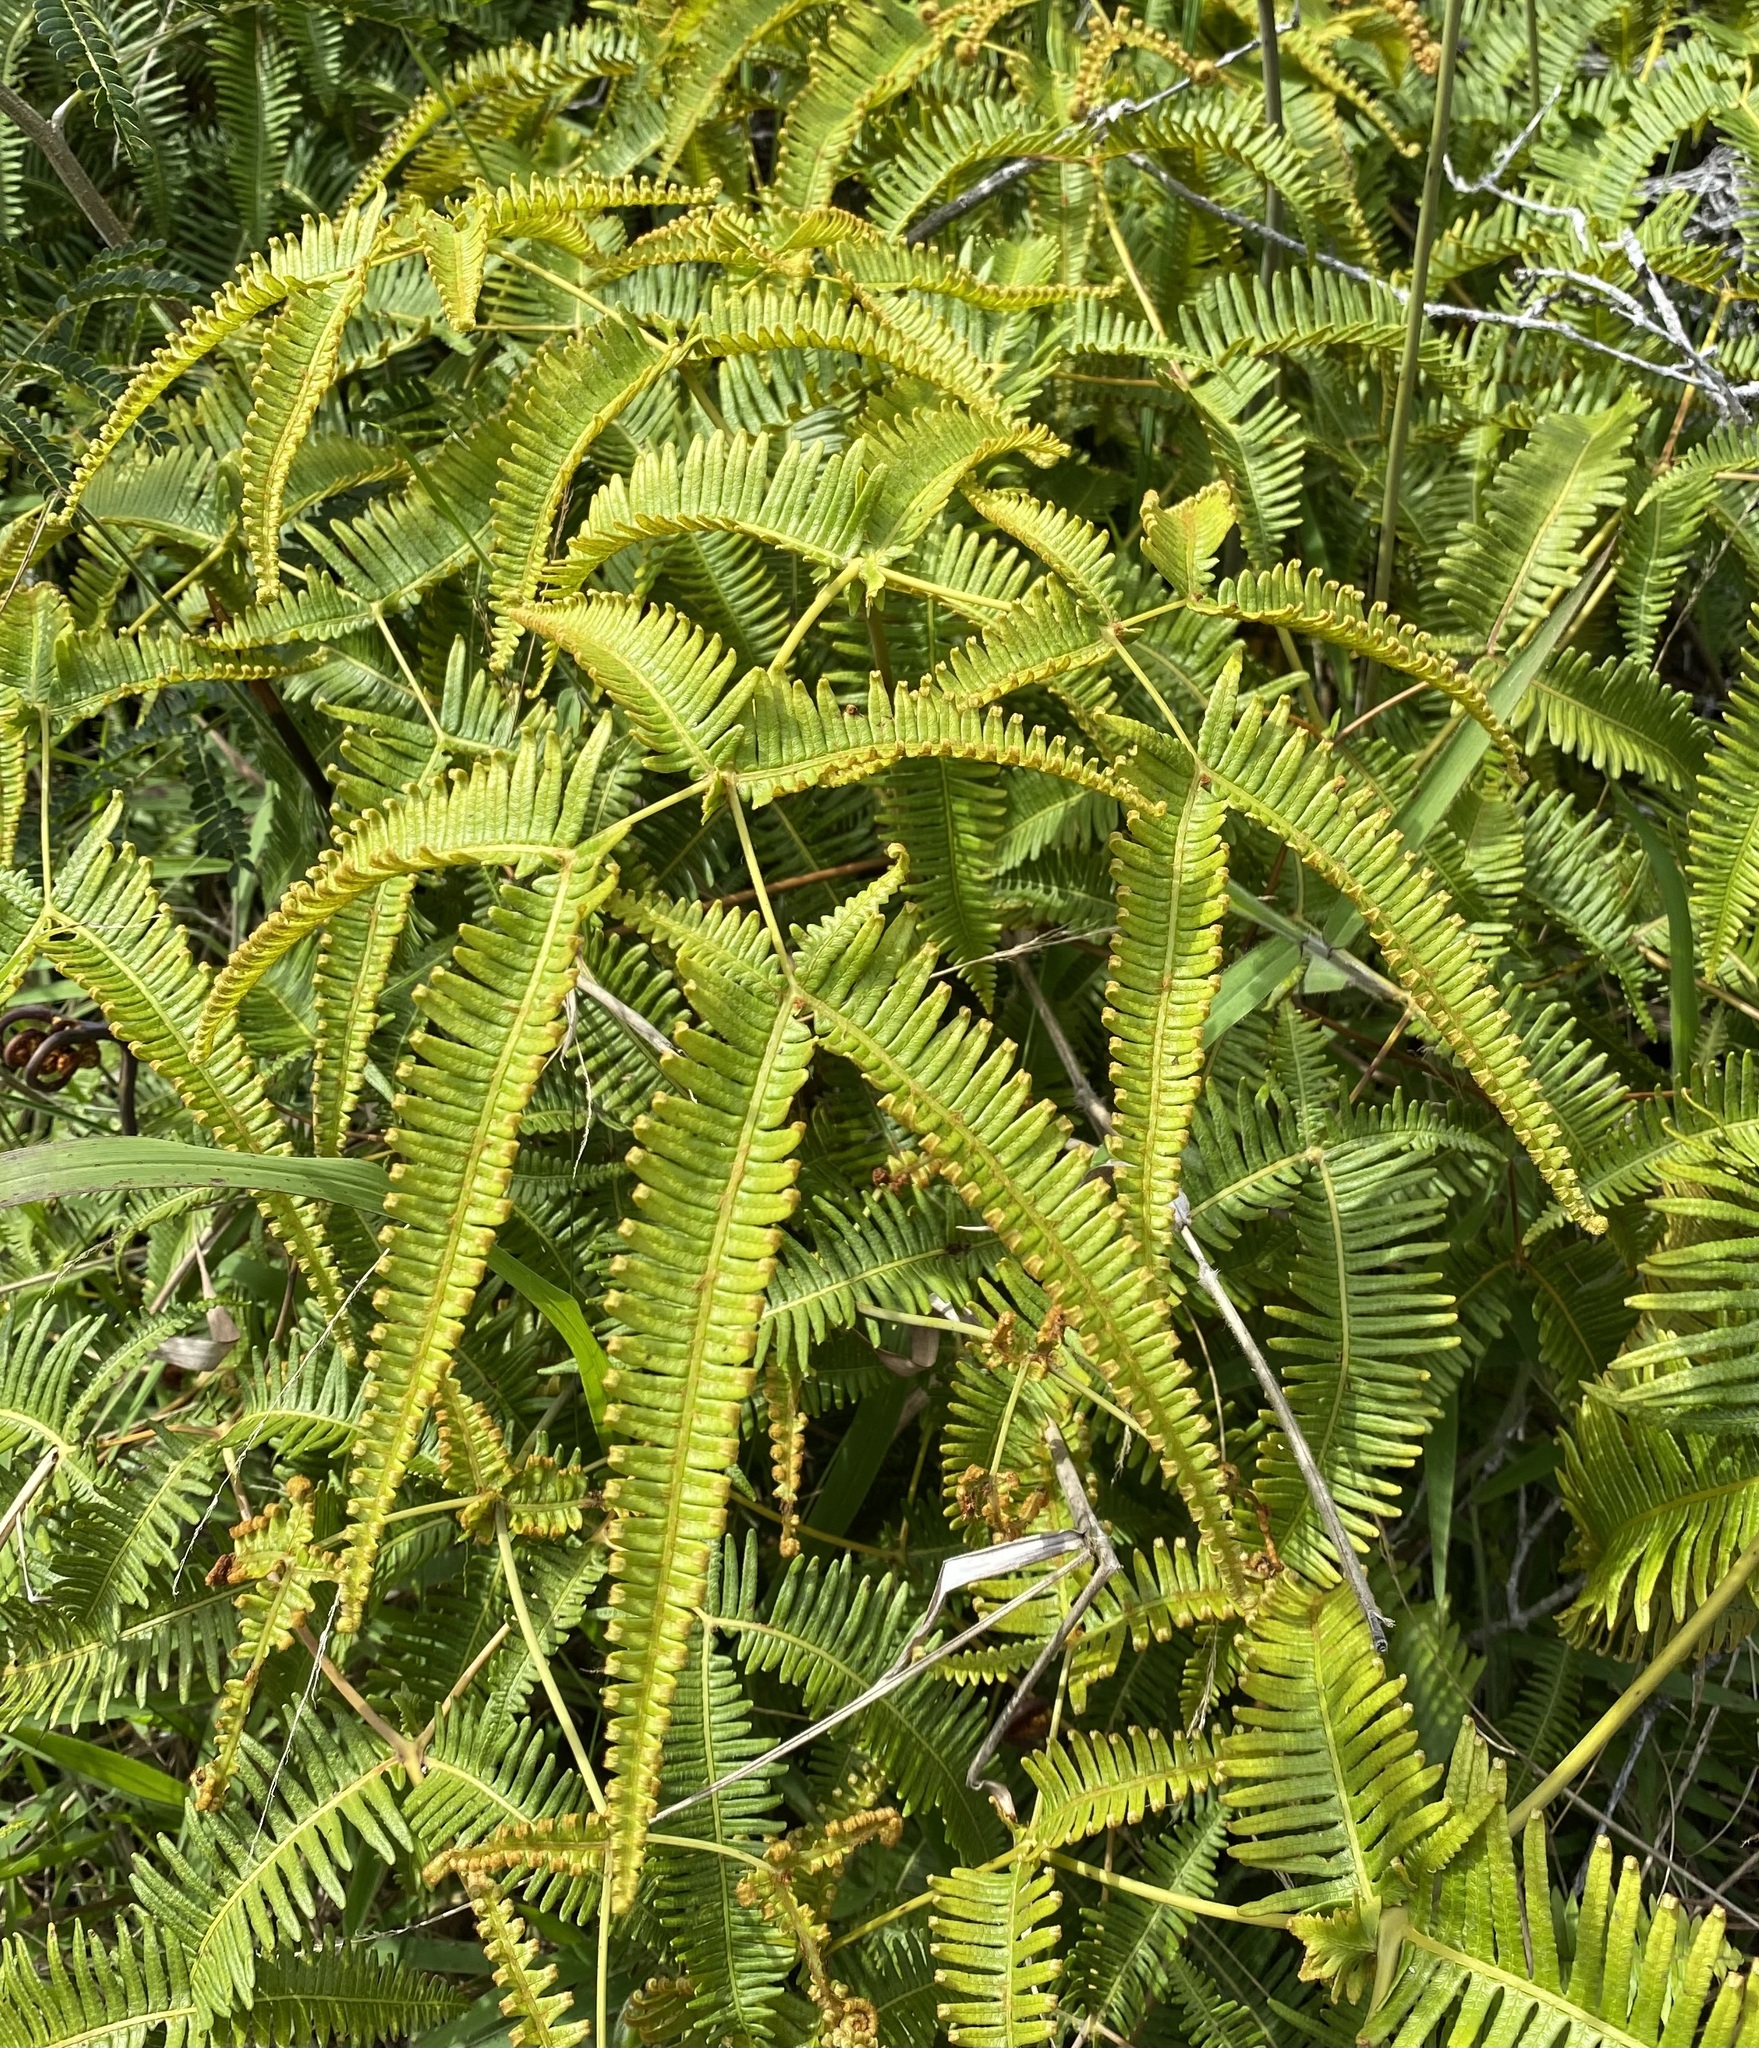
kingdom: Plantae
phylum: Tracheophyta
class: Polypodiopsida
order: Gleicheniales
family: Gleicheniaceae
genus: Dicranopteris
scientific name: Dicranopteris linearis
